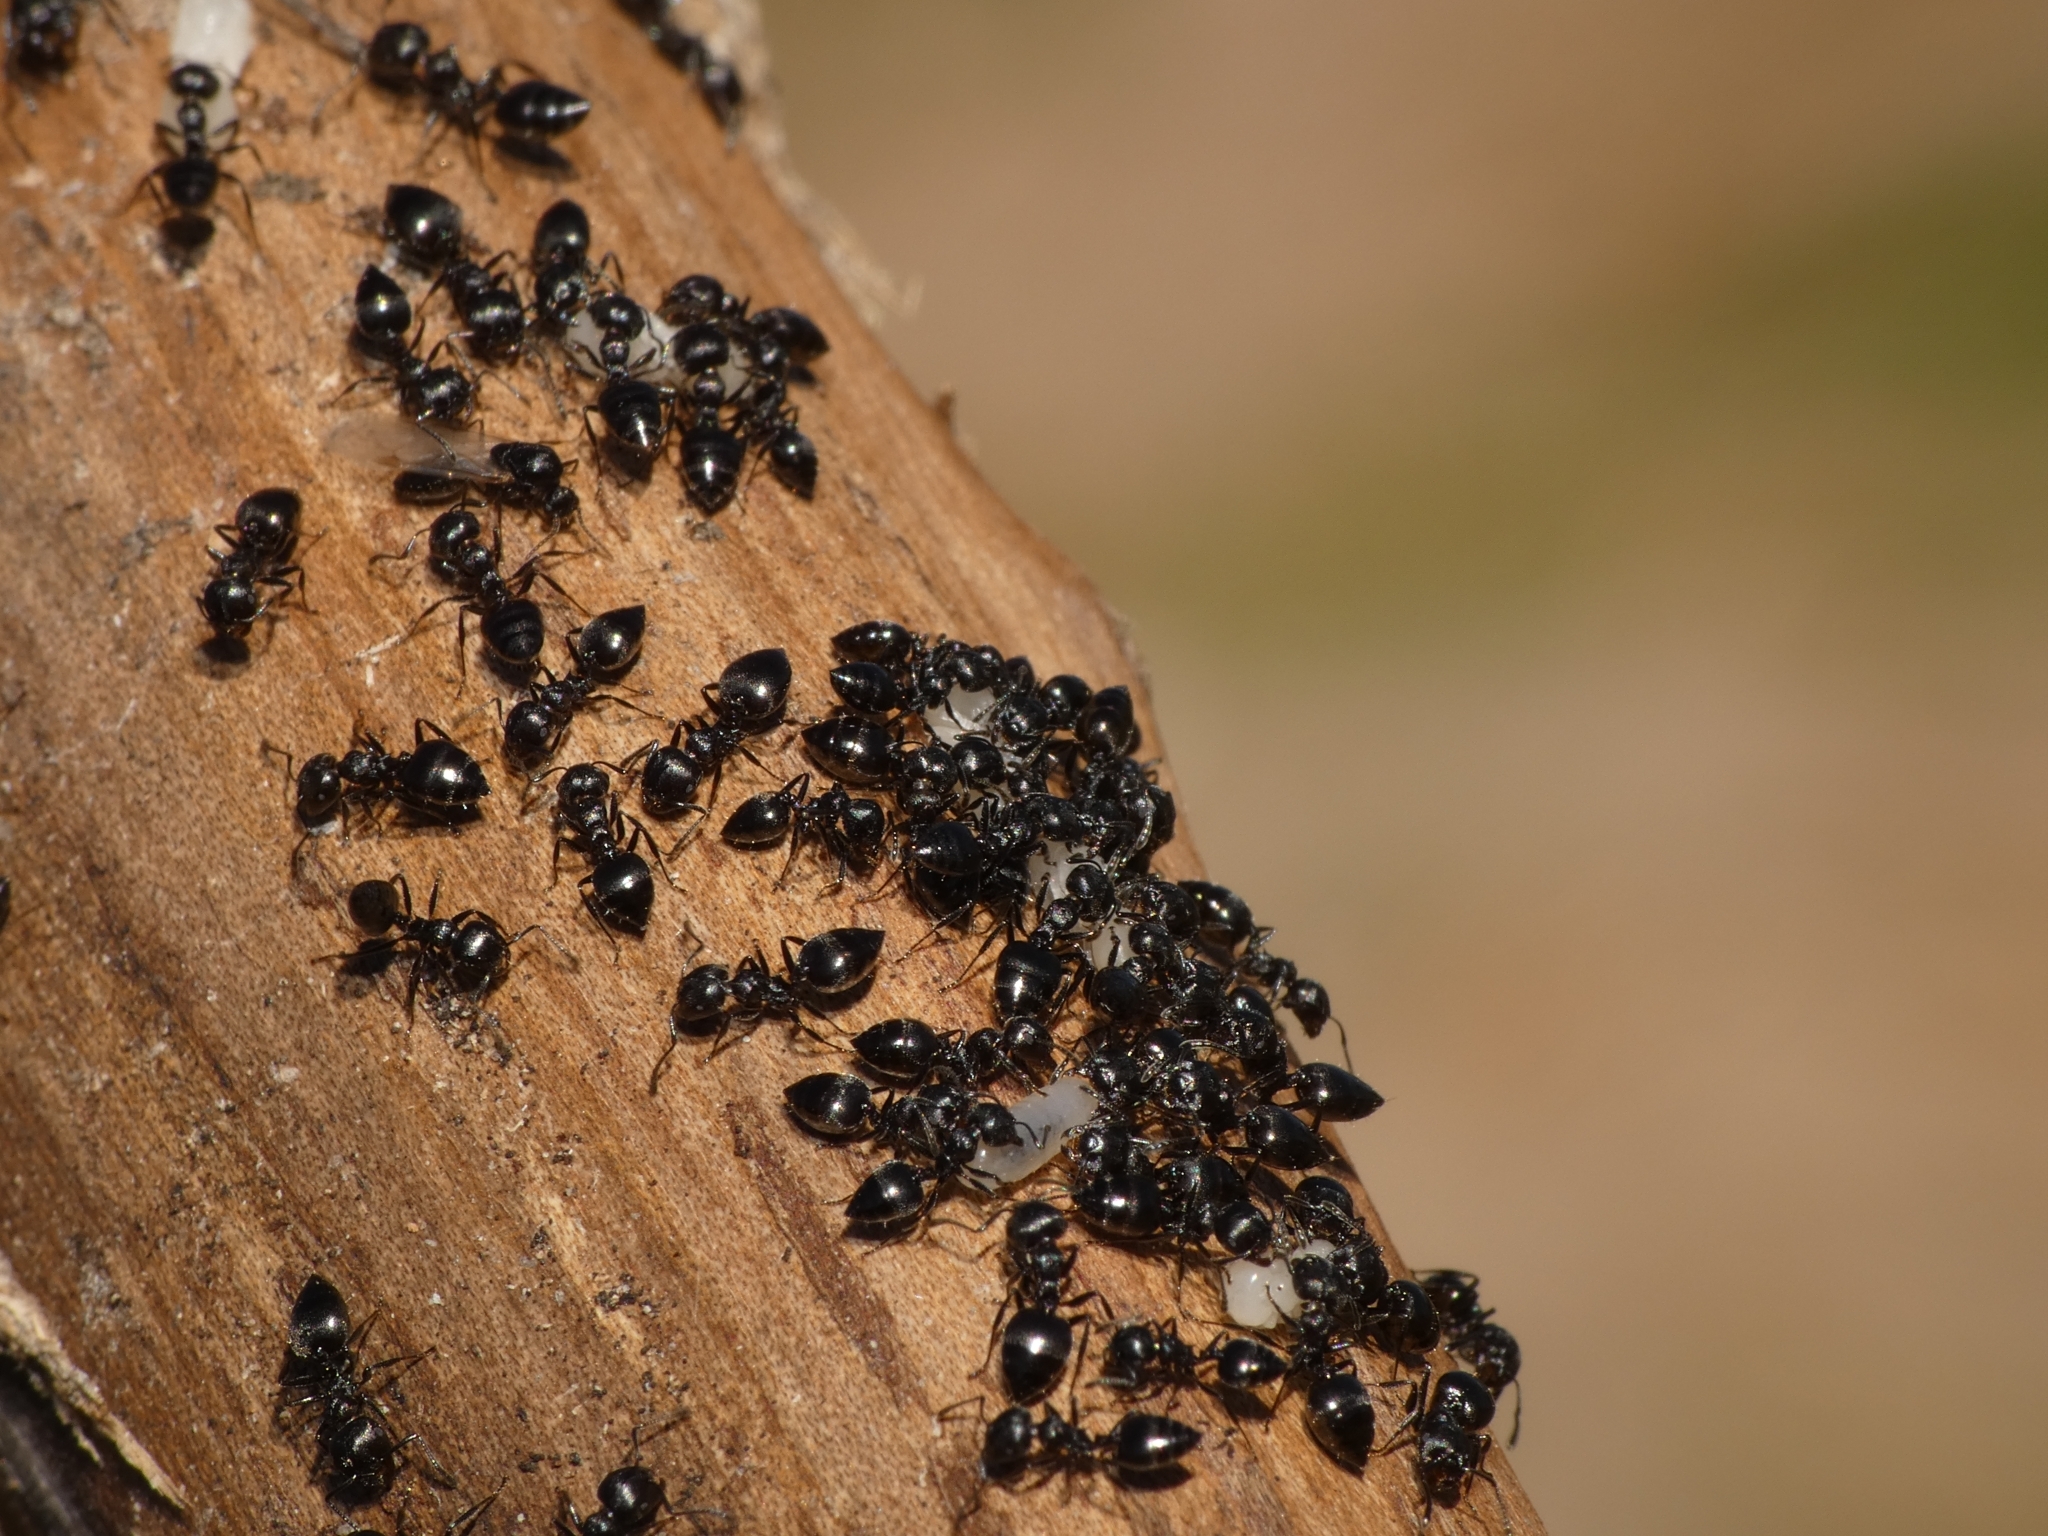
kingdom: Animalia
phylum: Arthropoda
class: Insecta
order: Hymenoptera
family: Formicidae
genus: Crematogaster
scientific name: Crematogaster peringueyi
